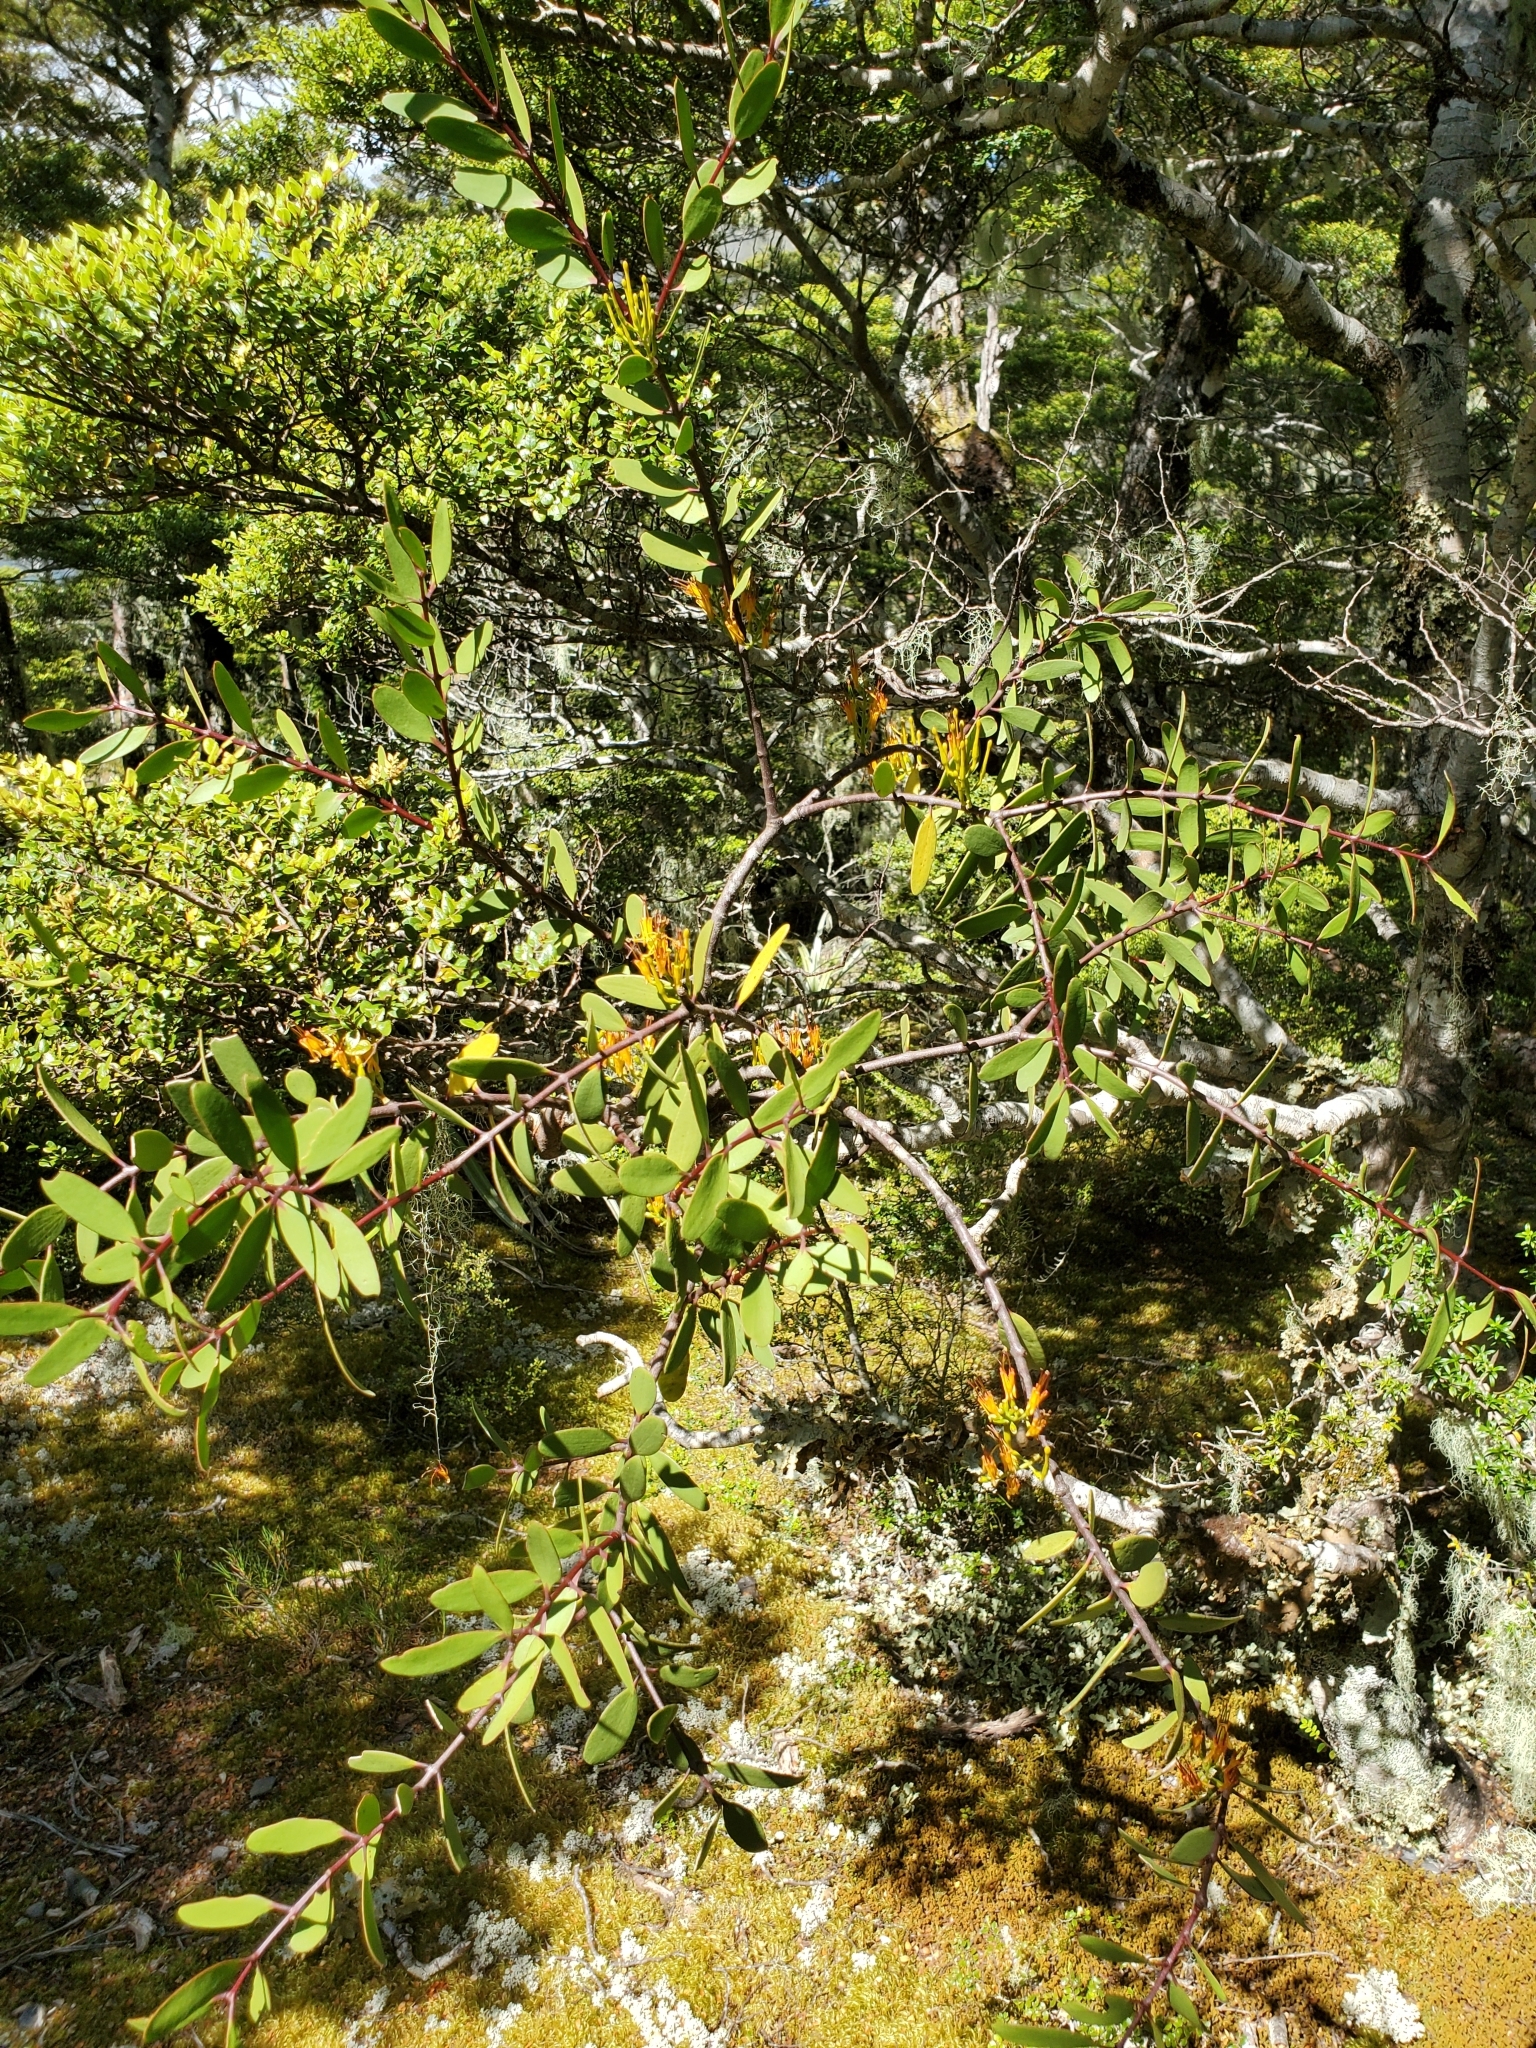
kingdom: Plantae
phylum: Tracheophyta
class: Magnoliopsida
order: Santalales
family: Loranthaceae
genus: Alepis
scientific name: Alepis flavida
